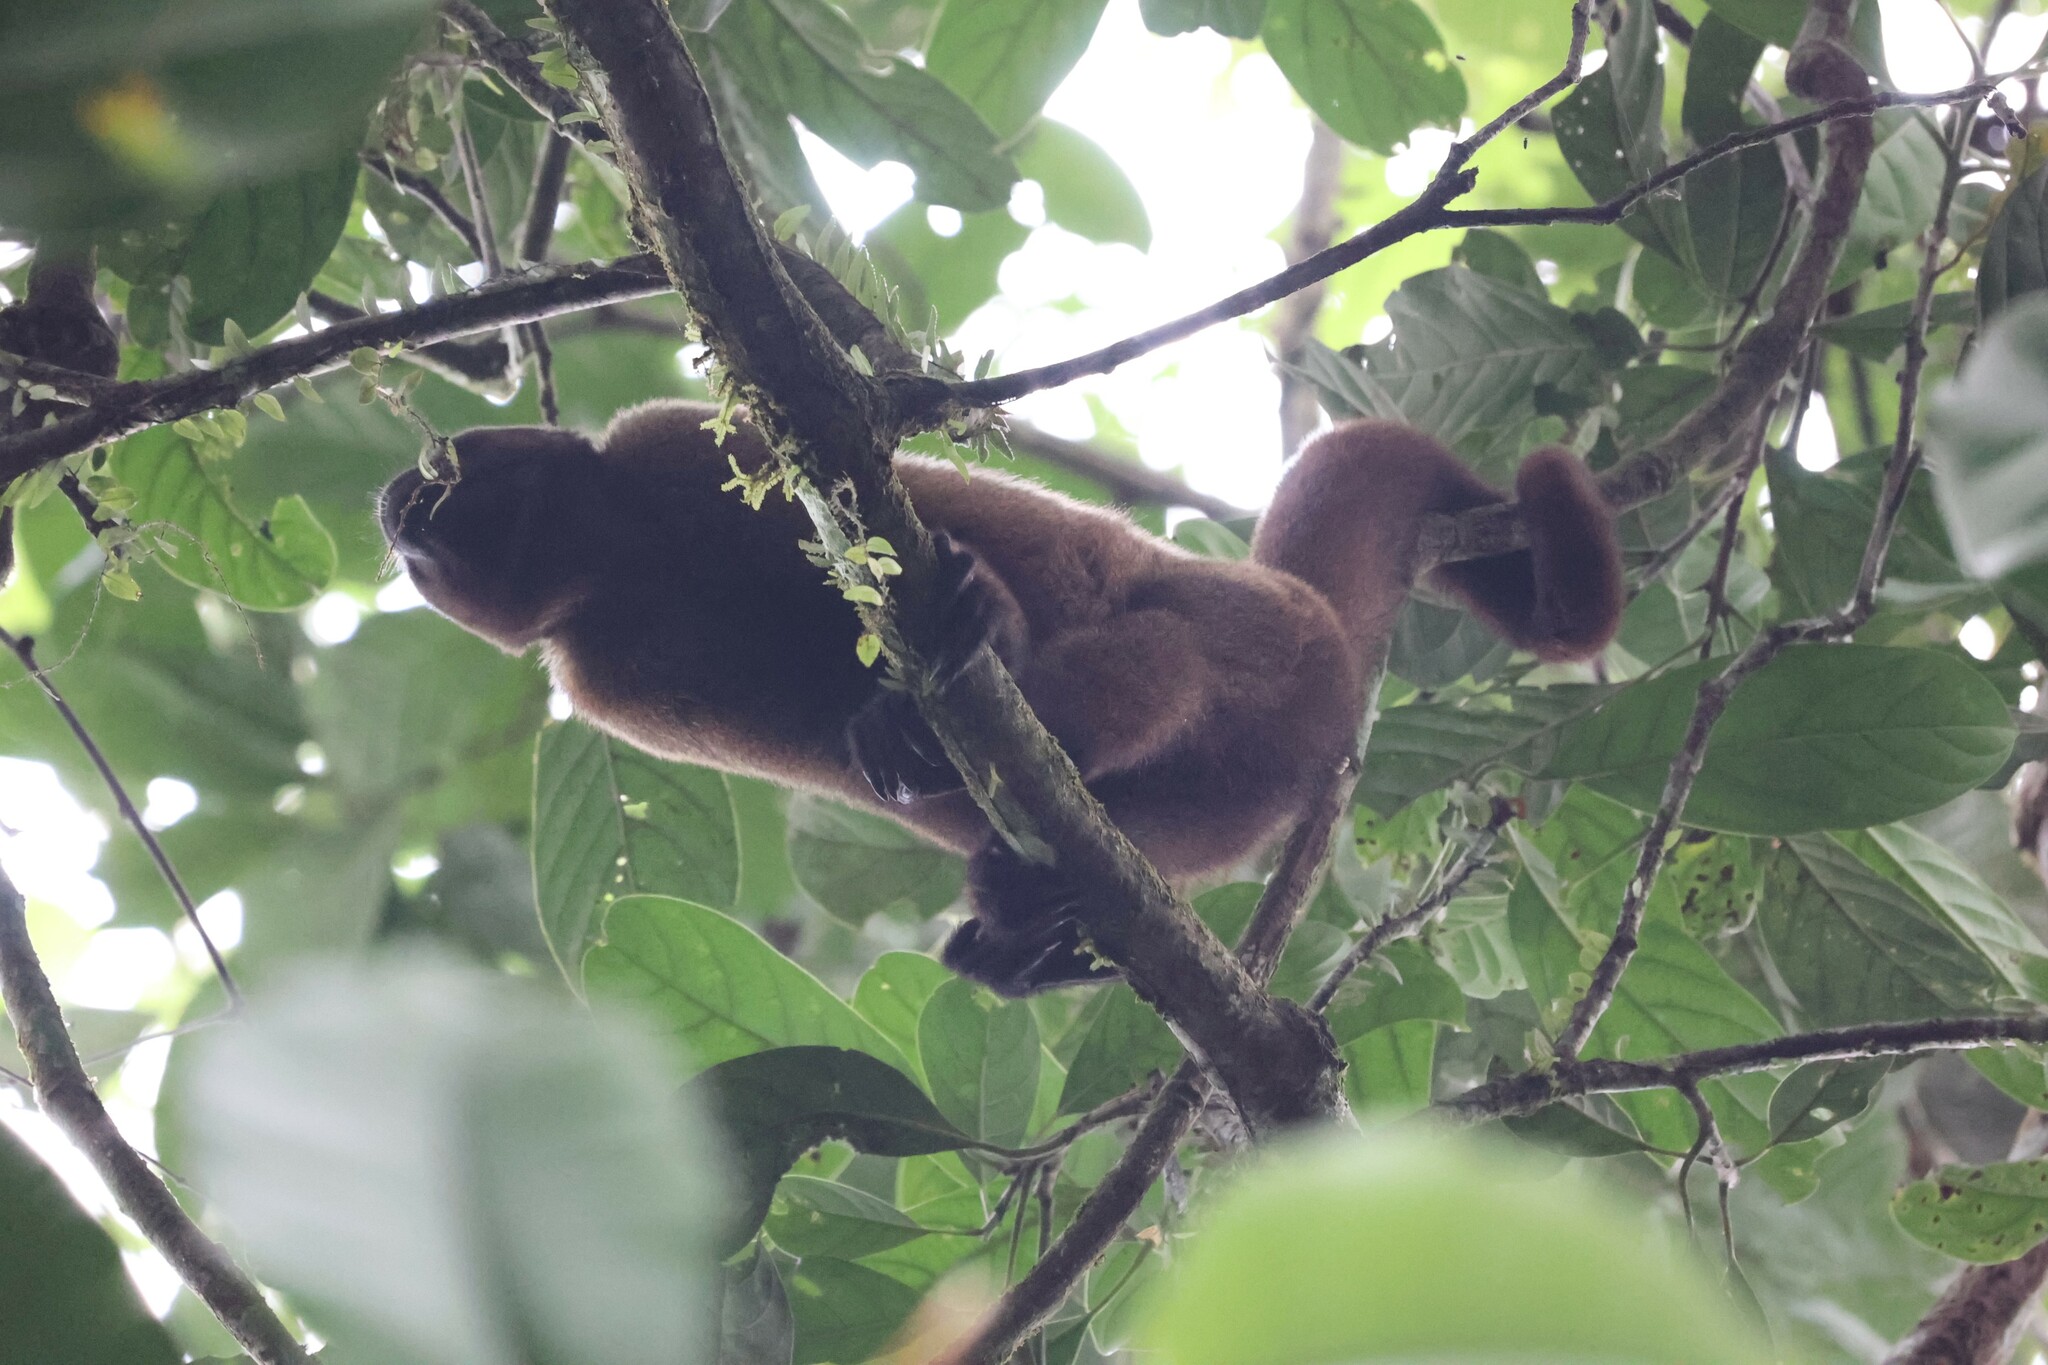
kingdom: Animalia
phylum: Chordata
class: Mammalia
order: Primates
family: Atelidae
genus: Lagothrix
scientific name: Lagothrix lagothricha
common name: Brown woolly monkey
